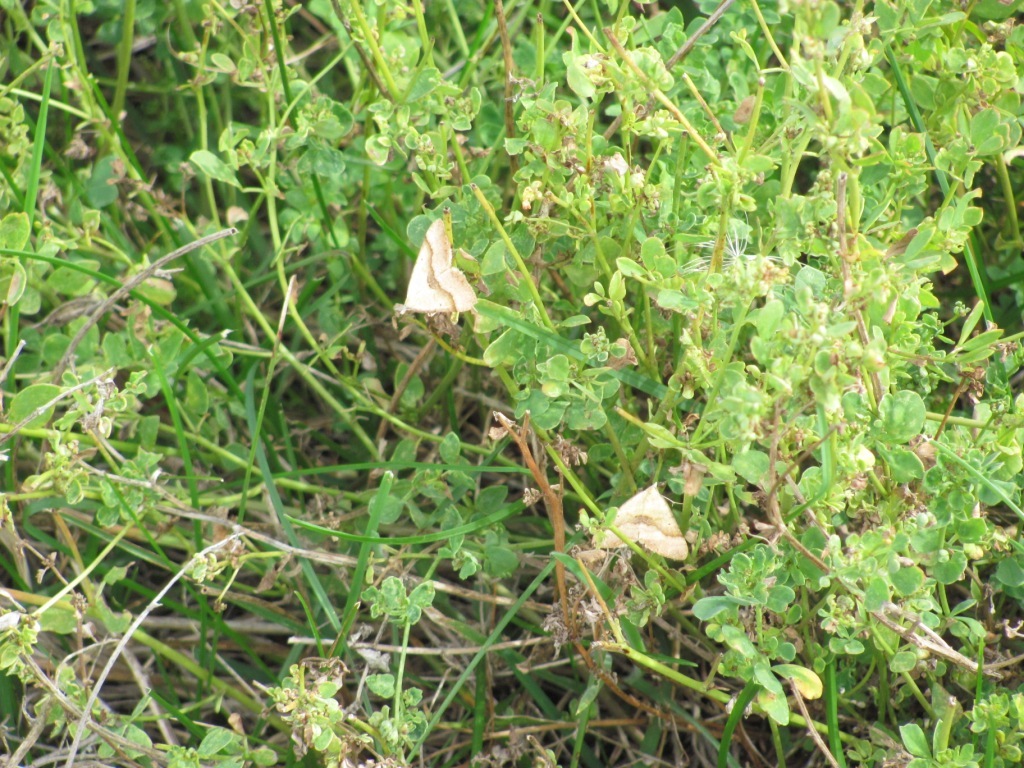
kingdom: Animalia
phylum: Arthropoda
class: Insecta
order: Lepidoptera
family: Geometridae
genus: Anachloris
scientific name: Anachloris subochraria
